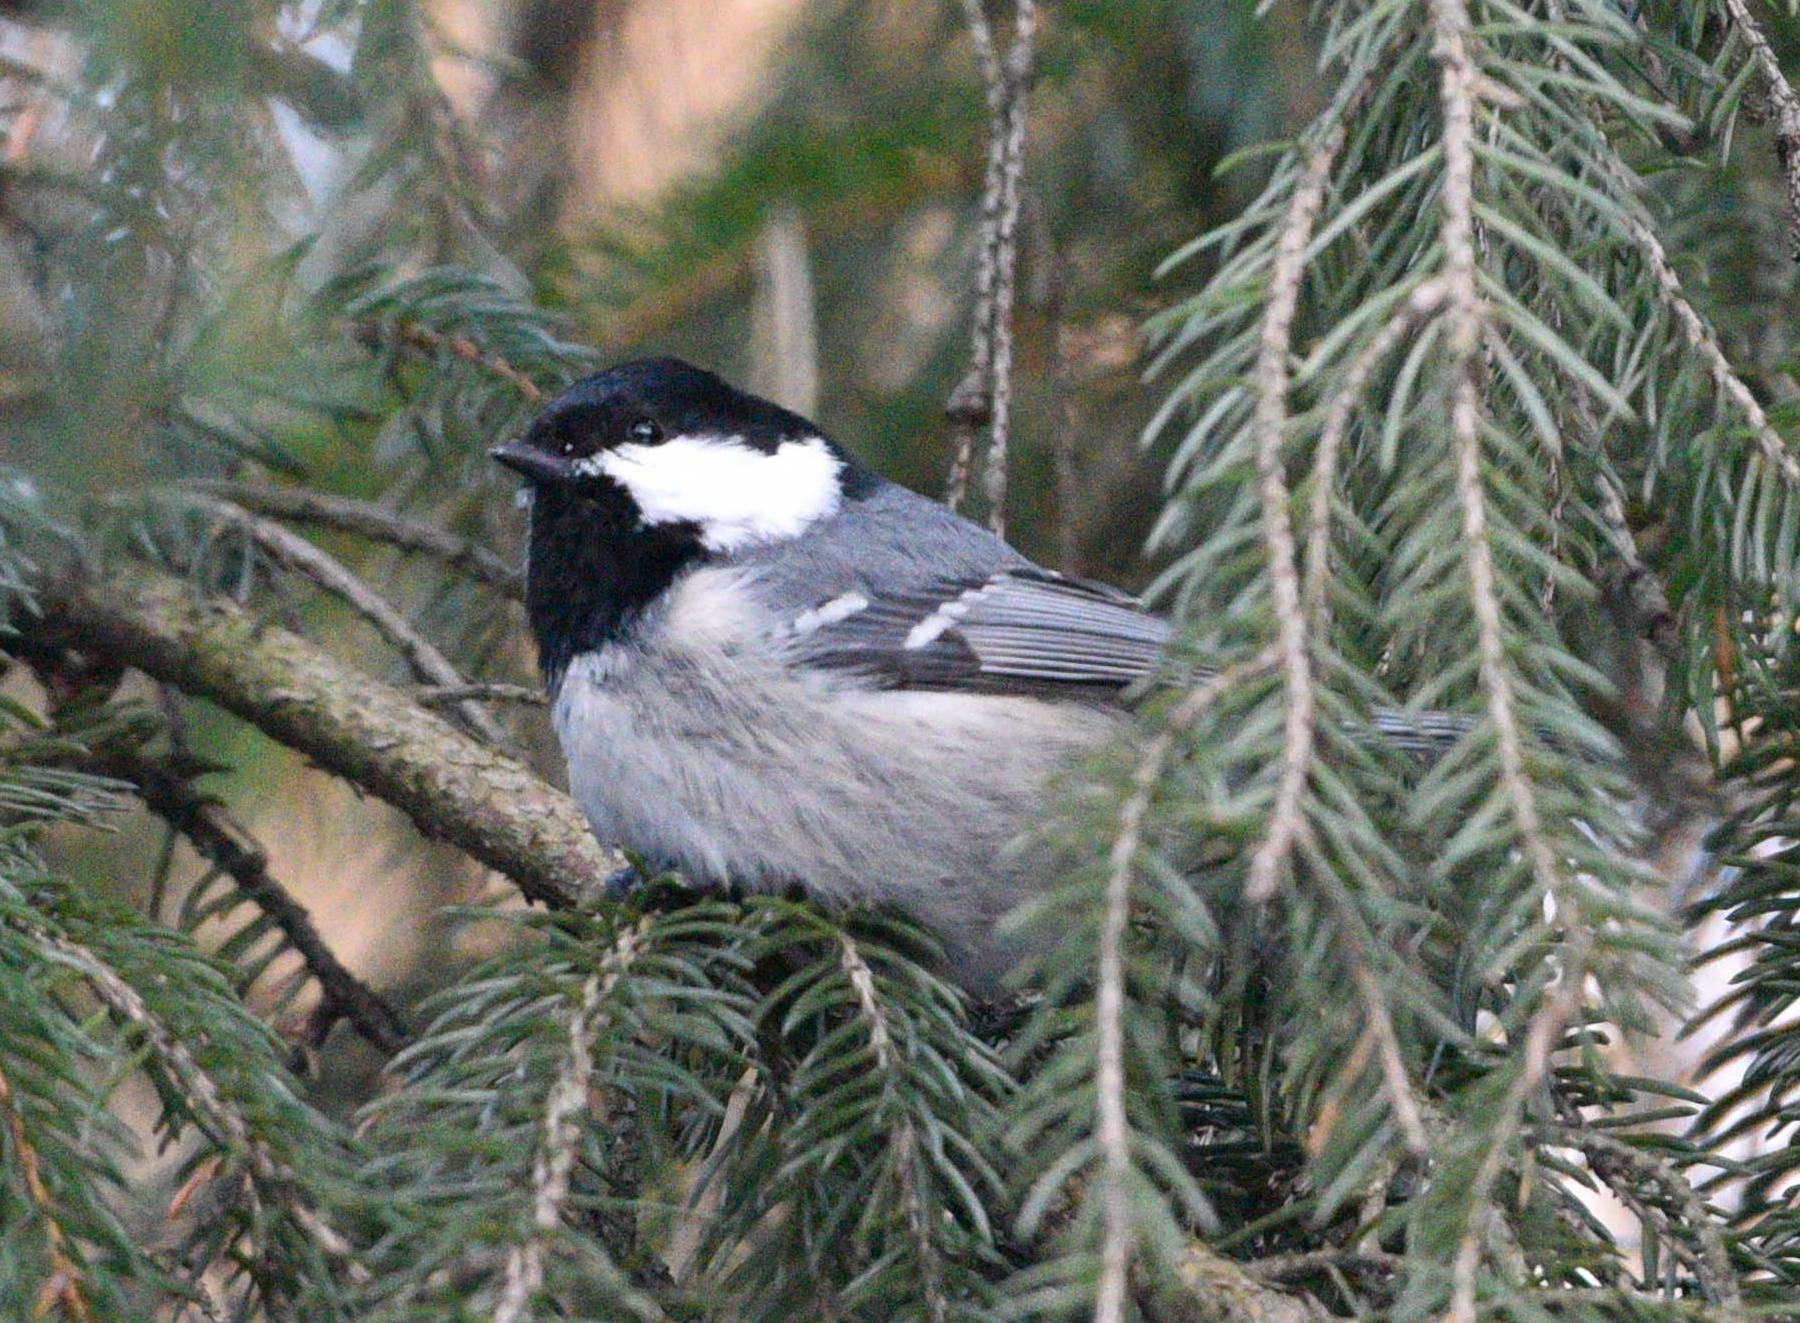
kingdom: Animalia
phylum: Chordata
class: Aves
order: Passeriformes
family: Paridae
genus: Periparus
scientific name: Periparus ater
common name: Coal tit
